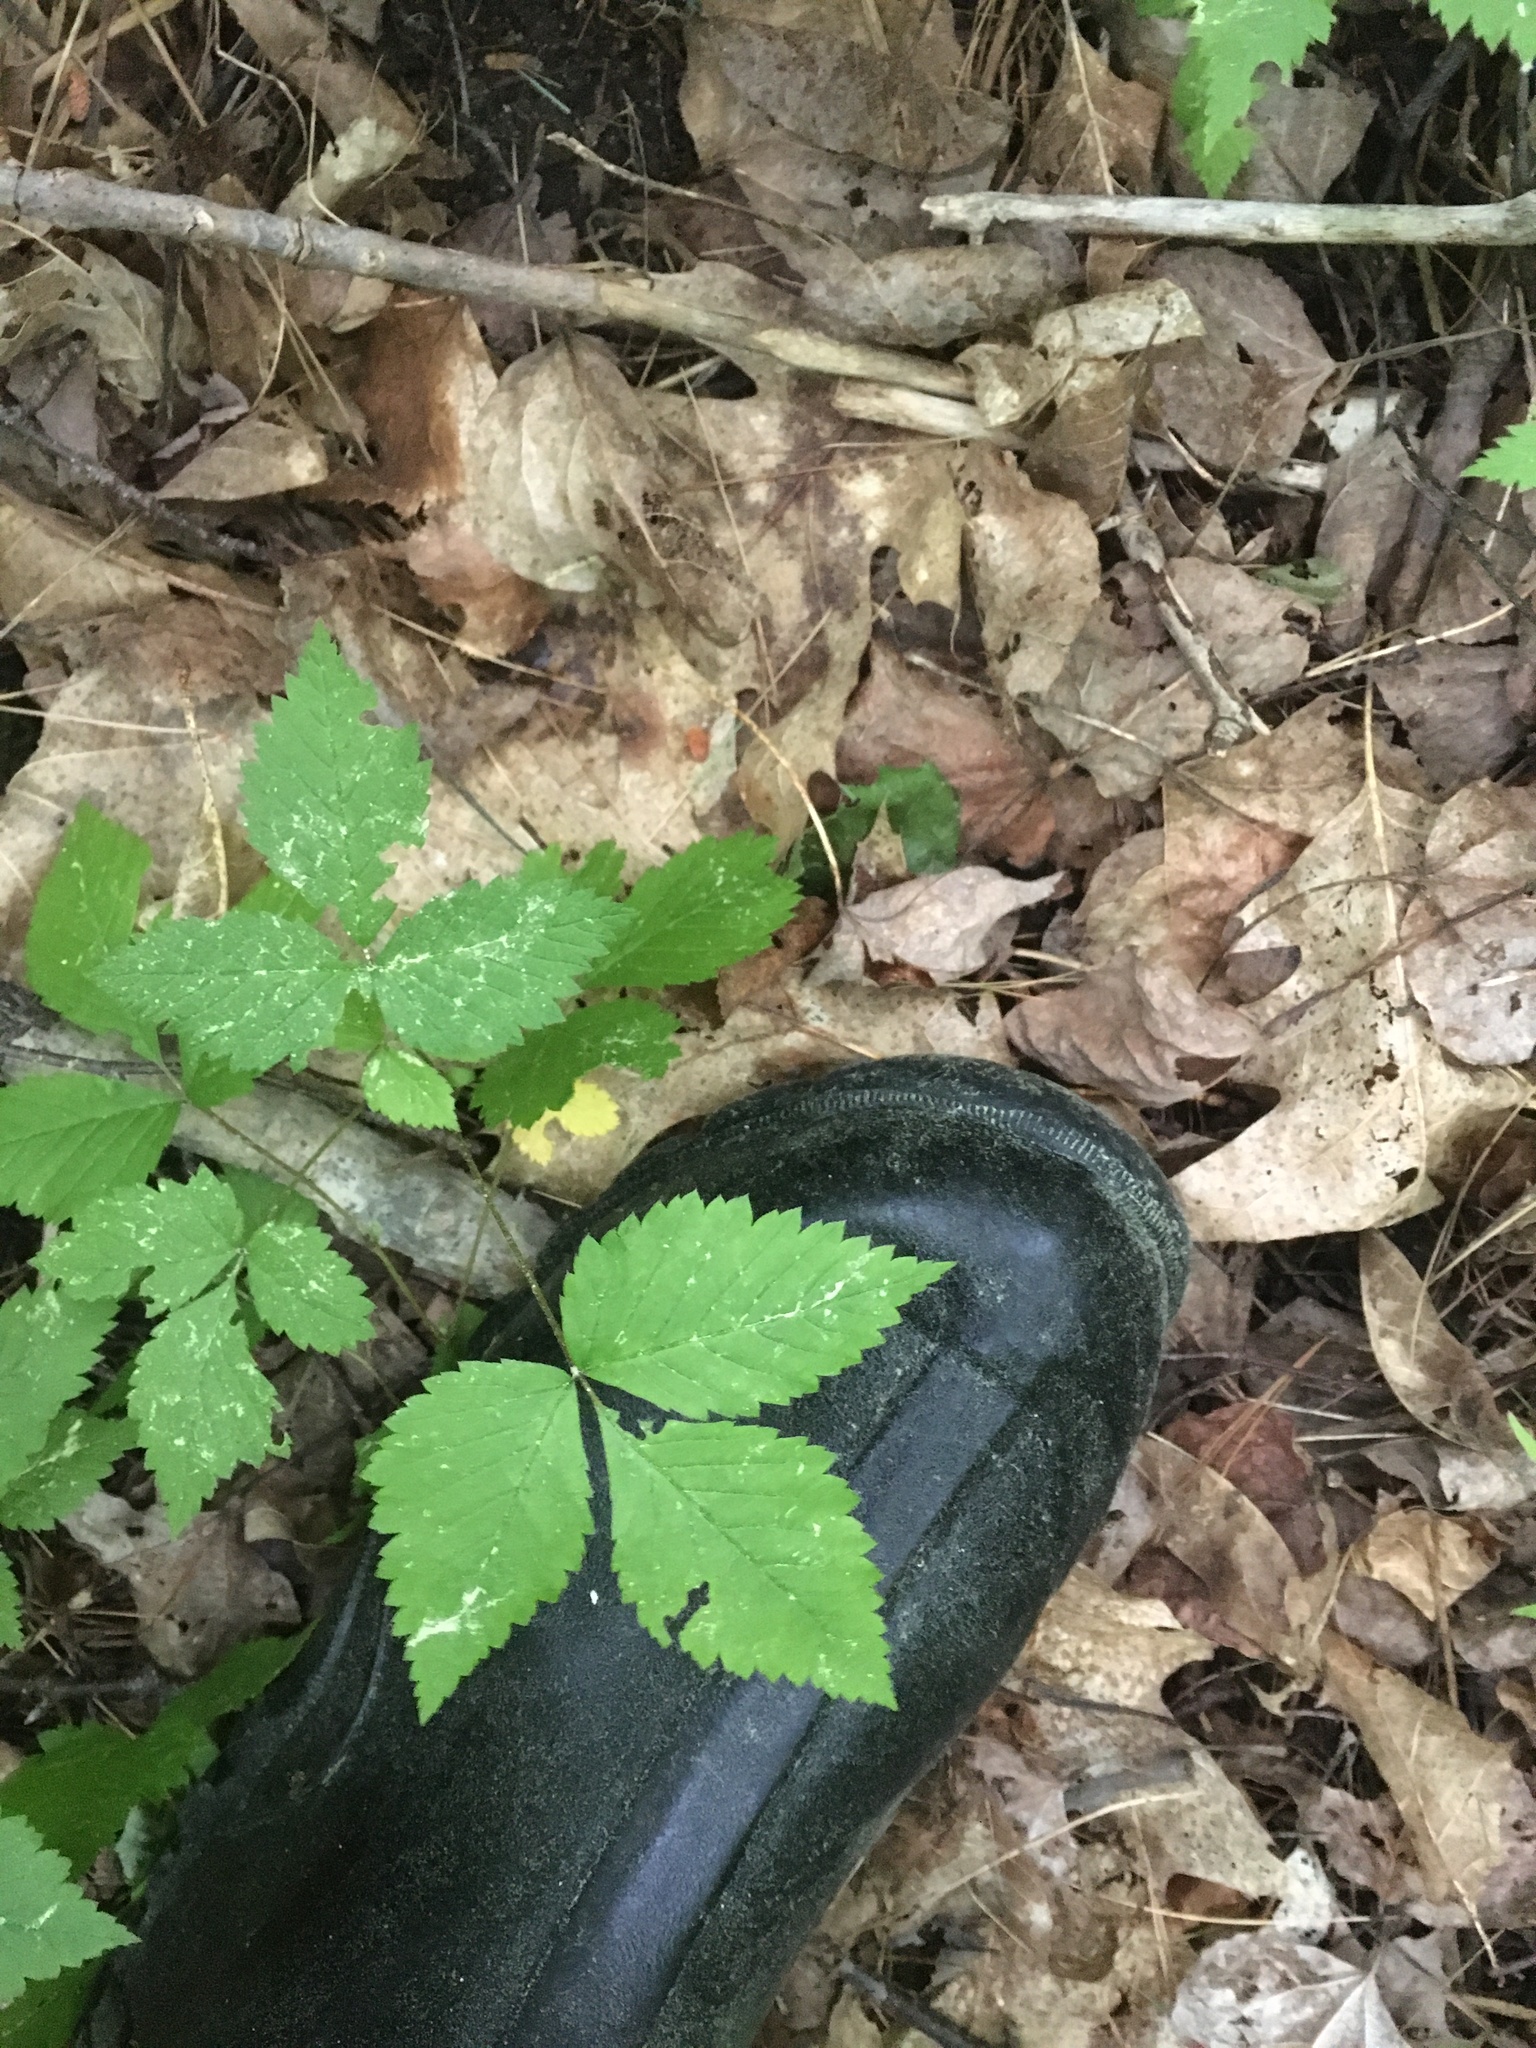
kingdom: Plantae
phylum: Tracheophyta
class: Magnoliopsida
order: Rosales
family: Rosaceae
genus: Rubus
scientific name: Rubus pubescens
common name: Dwarf raspberry
